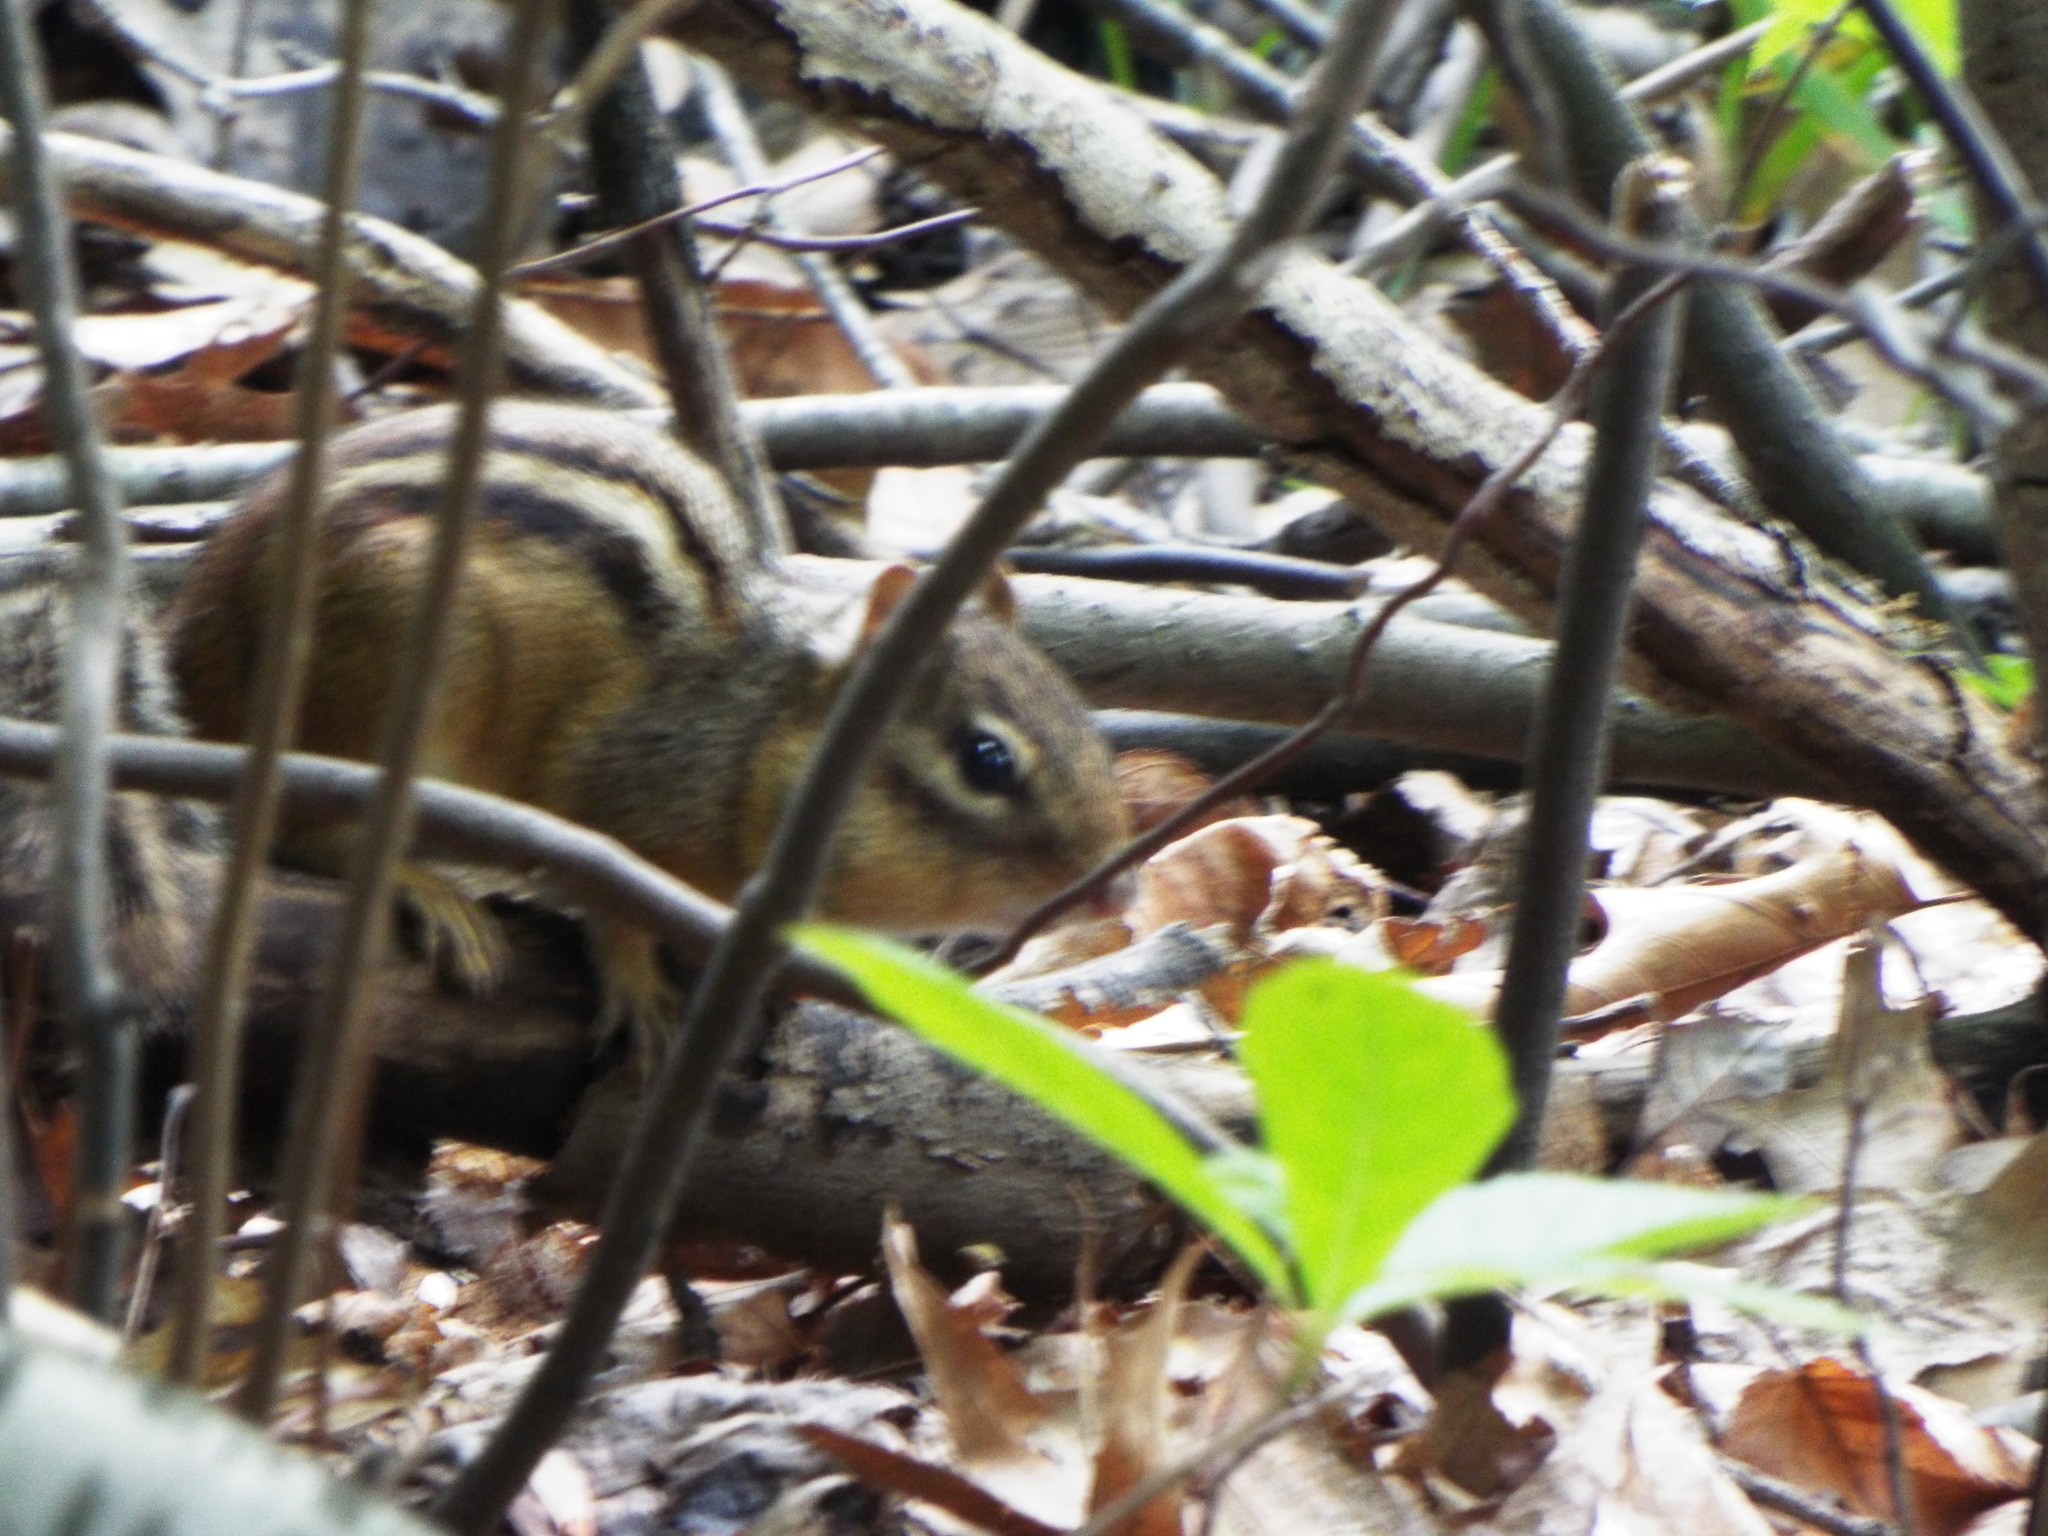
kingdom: Animalia
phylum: Chordata
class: Mammalia
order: Rodentia
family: Sciuridae
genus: Tamias
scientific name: Tamias striatus
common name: Eastern chipmunk
